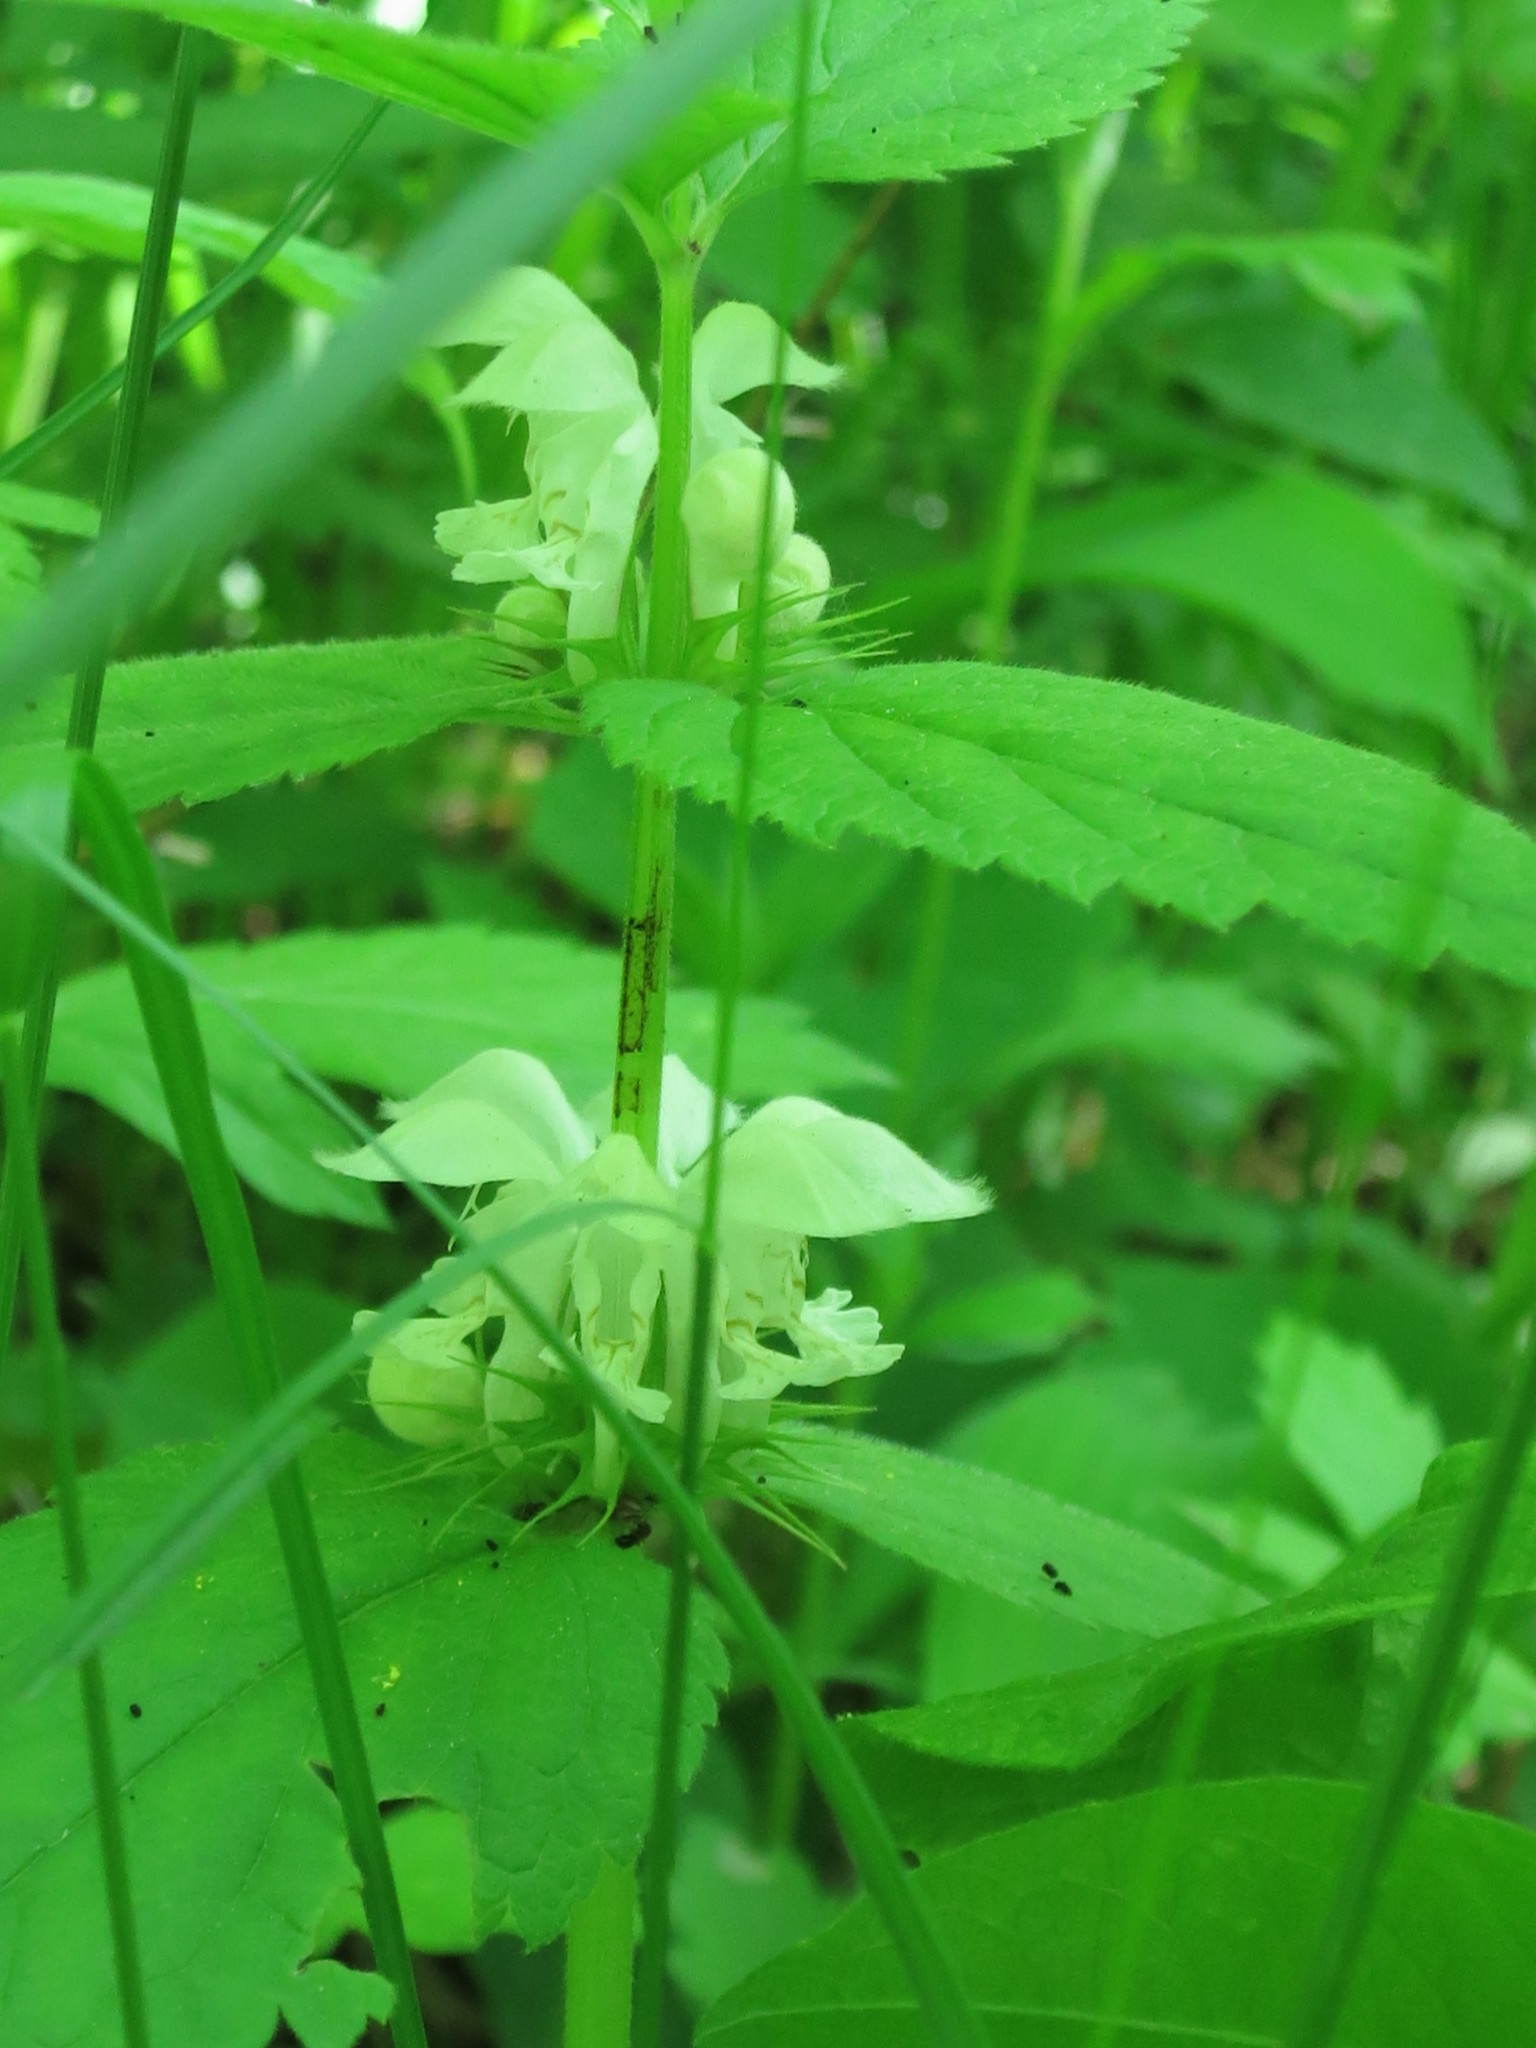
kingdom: Plantae
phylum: Tracheophyta
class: Magnoliopsida
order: Lamiales
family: Lamiaceae
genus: Lamium
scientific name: Lamium album
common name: White dead-nettle
